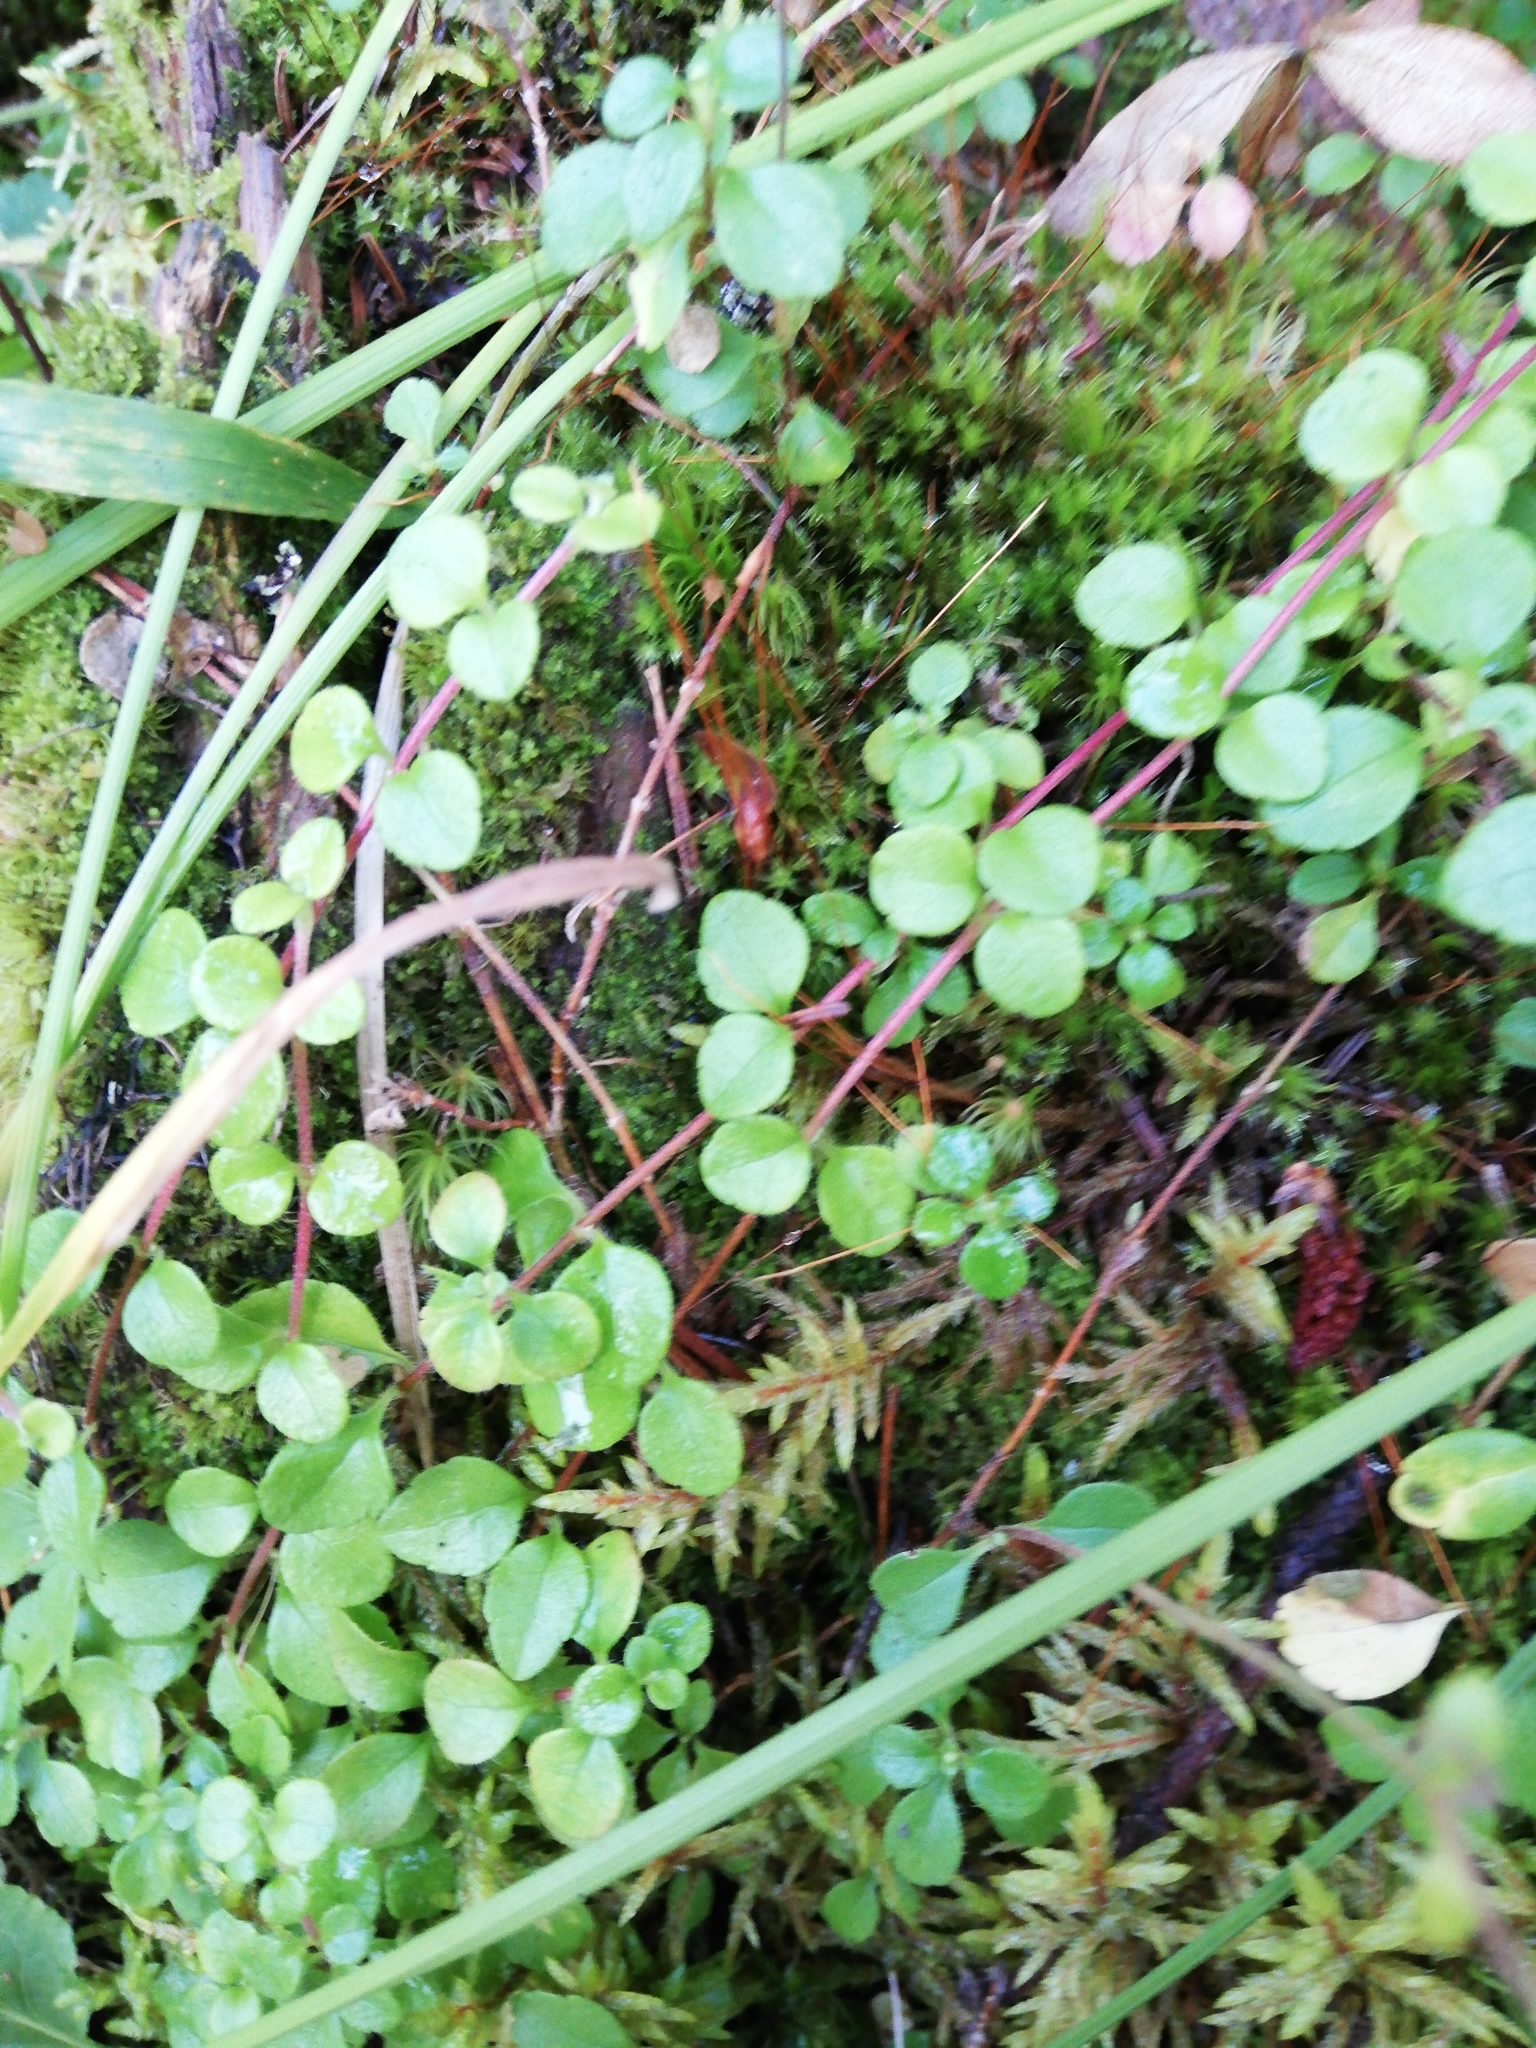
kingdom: Plantae
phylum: Tracheophyta
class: Magnoliopsida
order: Dipsacales
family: Caprifoliaceae
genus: Linnaea
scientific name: Linnaea borealis
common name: Twinflower
